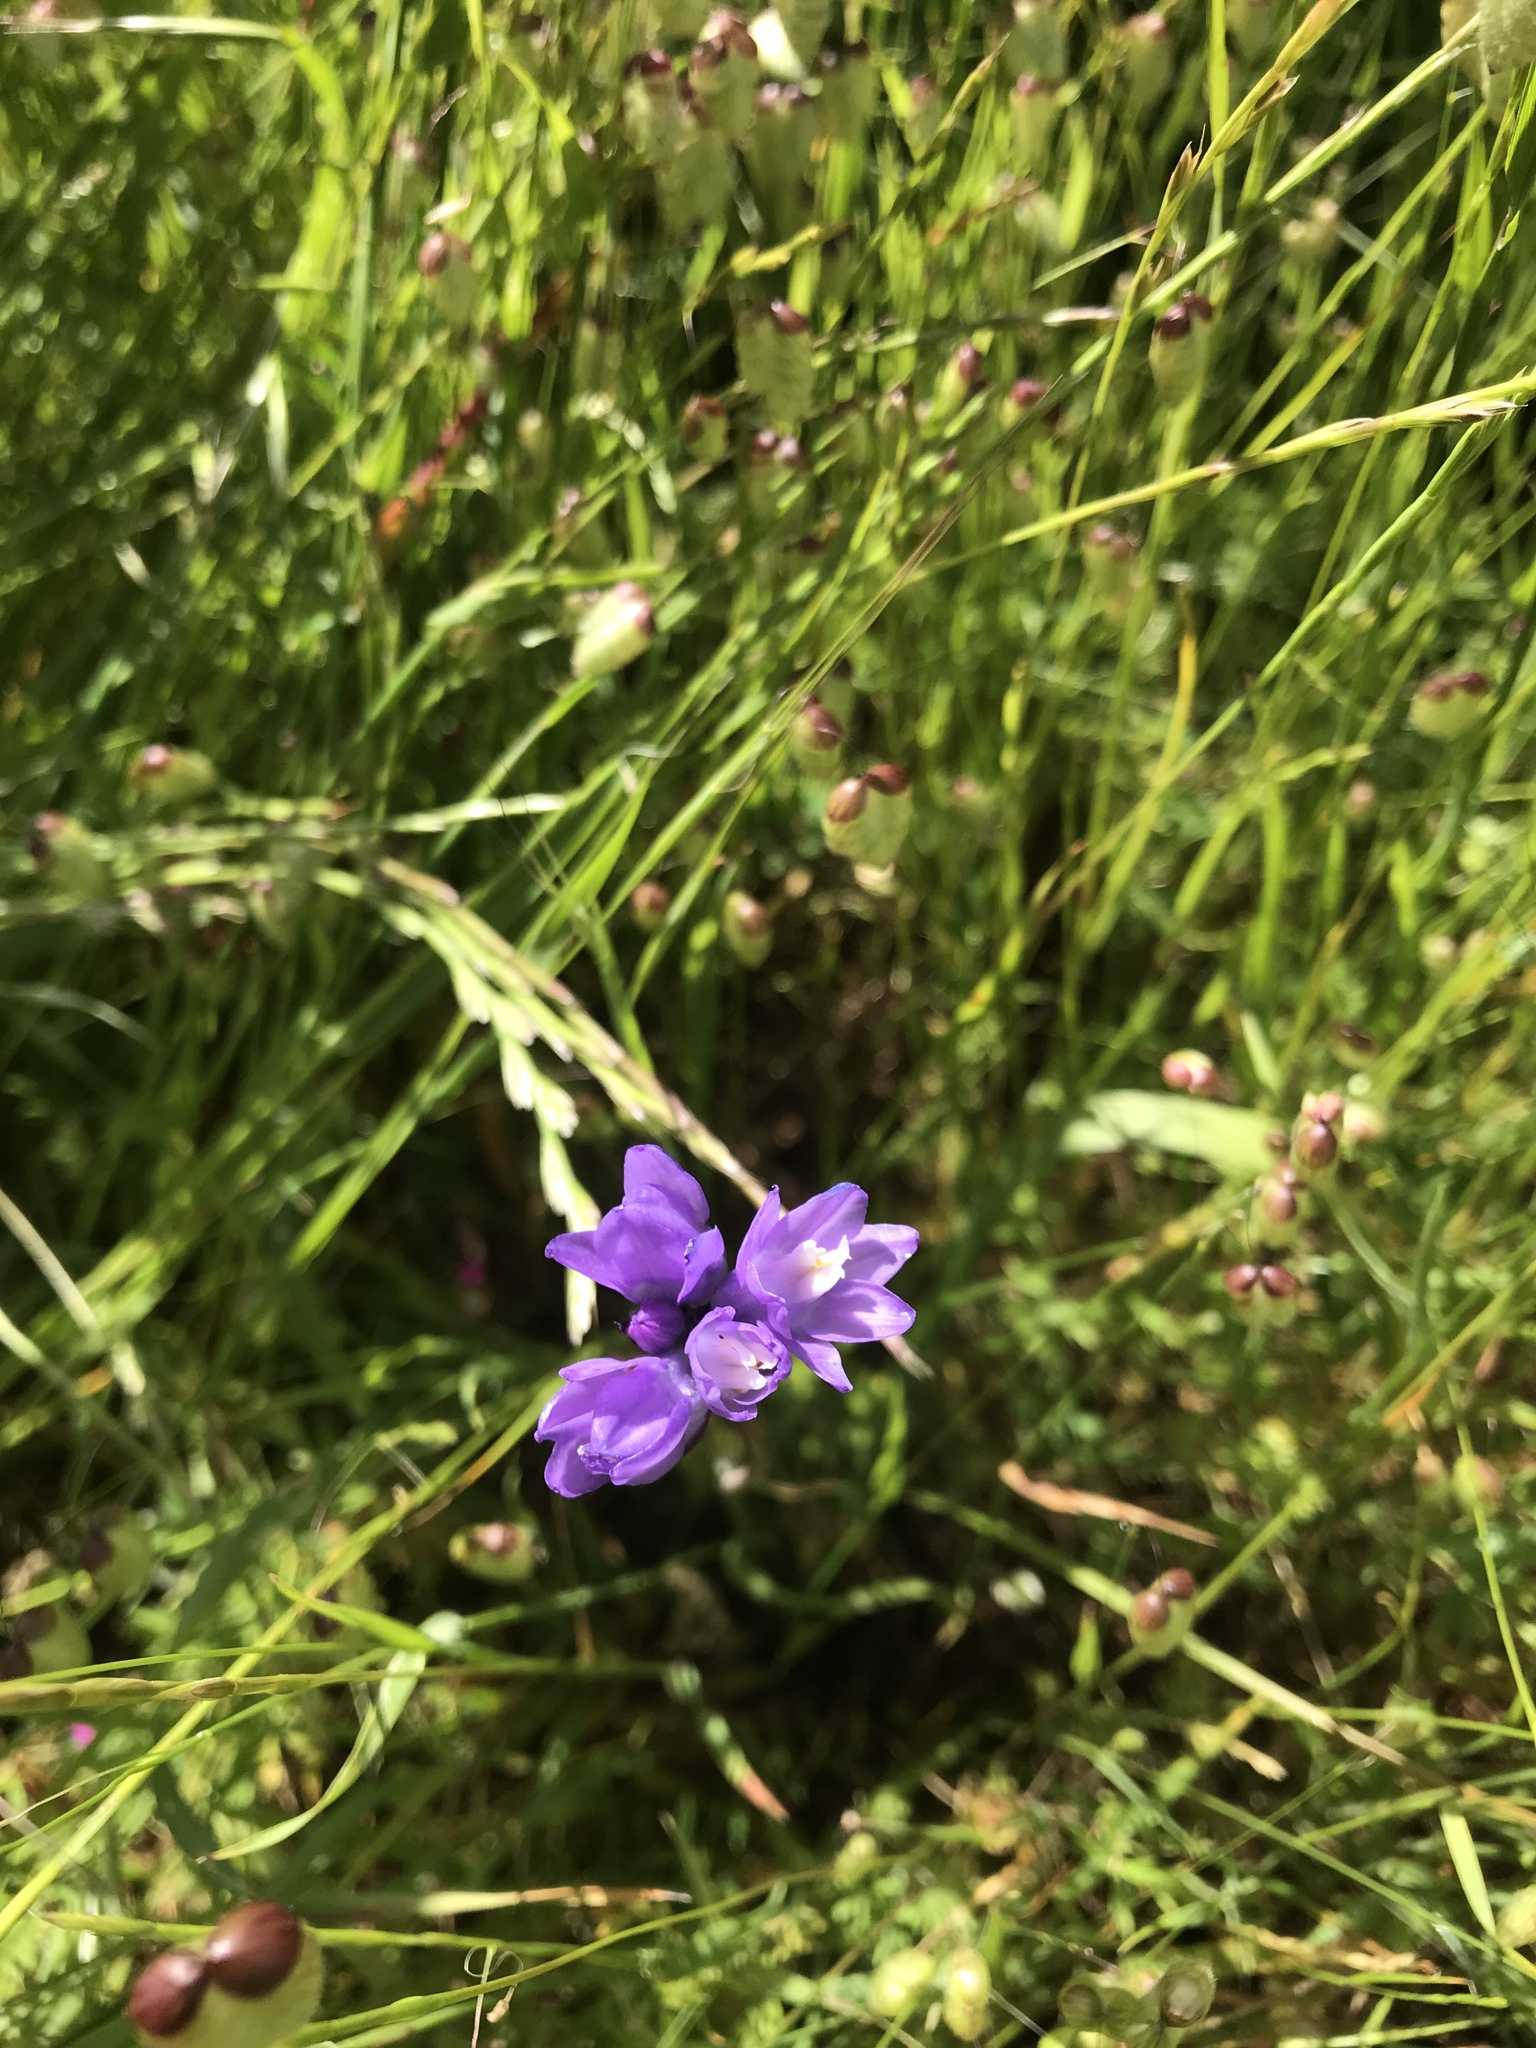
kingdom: Plantae
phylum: Tracheophyta
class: Liliopsida
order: Asparagales
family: Asparagaceae
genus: Dipterostemon
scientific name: Dipterostemon capitatus
